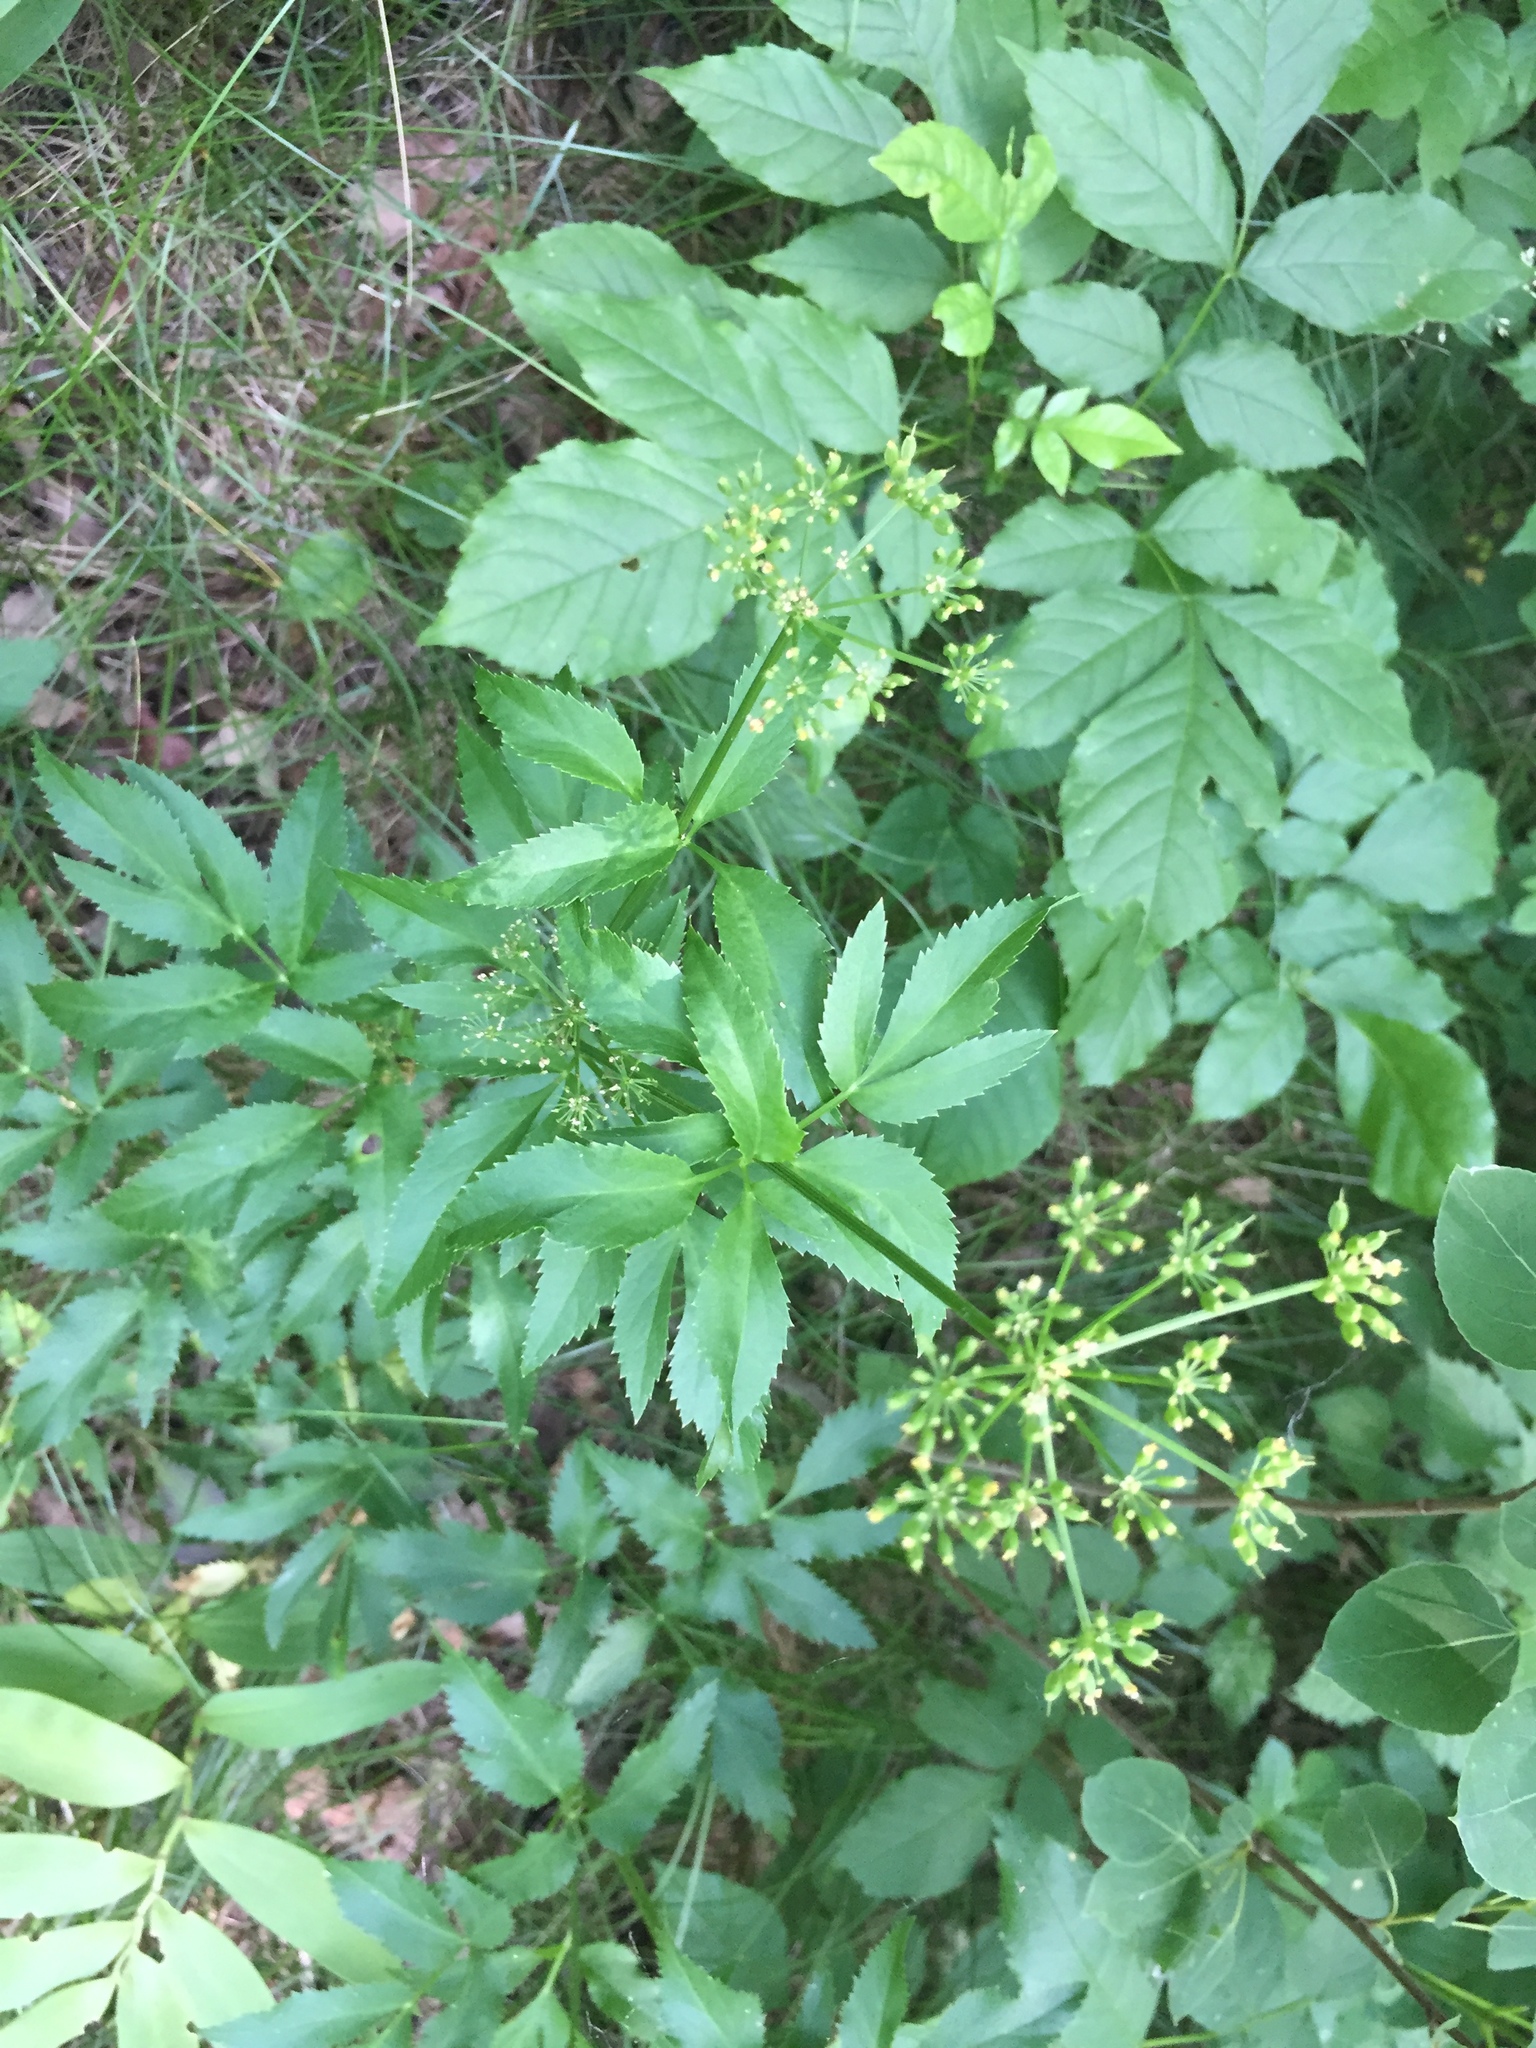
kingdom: Plantae
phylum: Tracheophyta
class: Magnoliopsida
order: Apiales
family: Apiaceae
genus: Zizia
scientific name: Zizia aurea
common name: Golden alexanders
